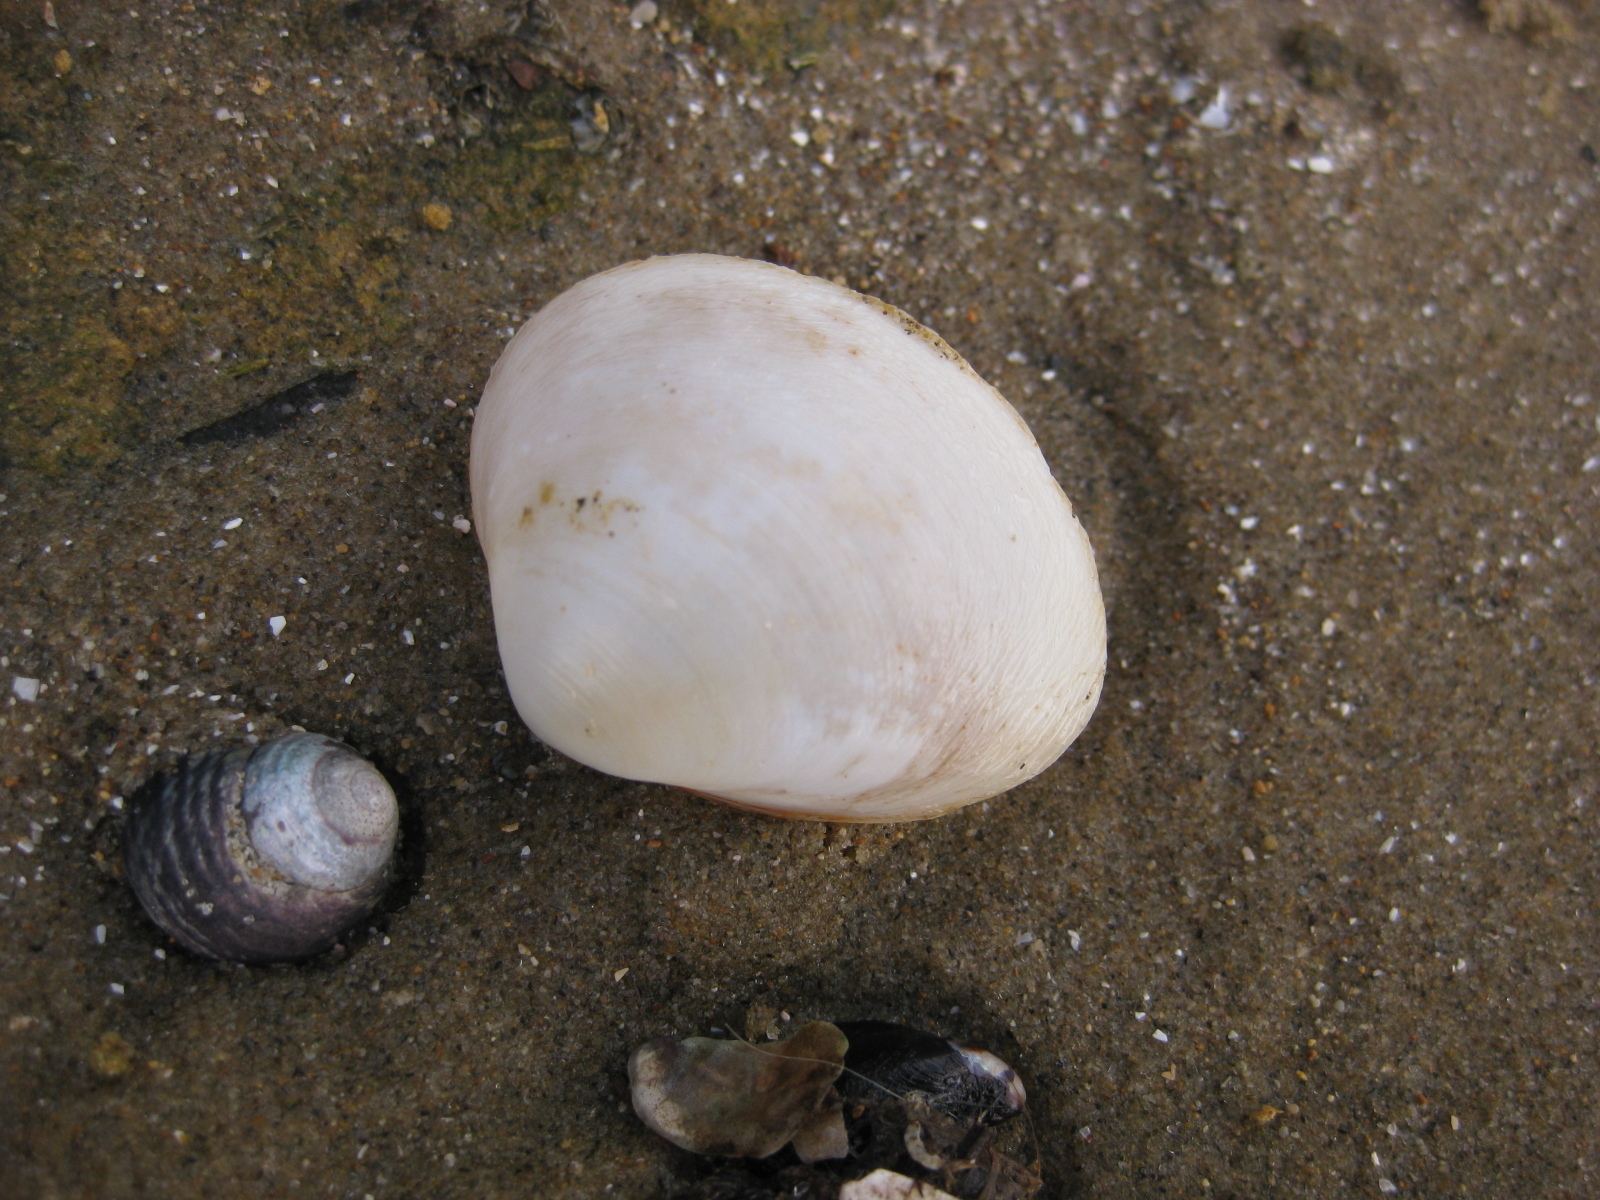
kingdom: Animalia
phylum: Mollusca
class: Bivalvia
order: Venerida
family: Mactridae
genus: Cyclomactra
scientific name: Cyclomactra ovata
